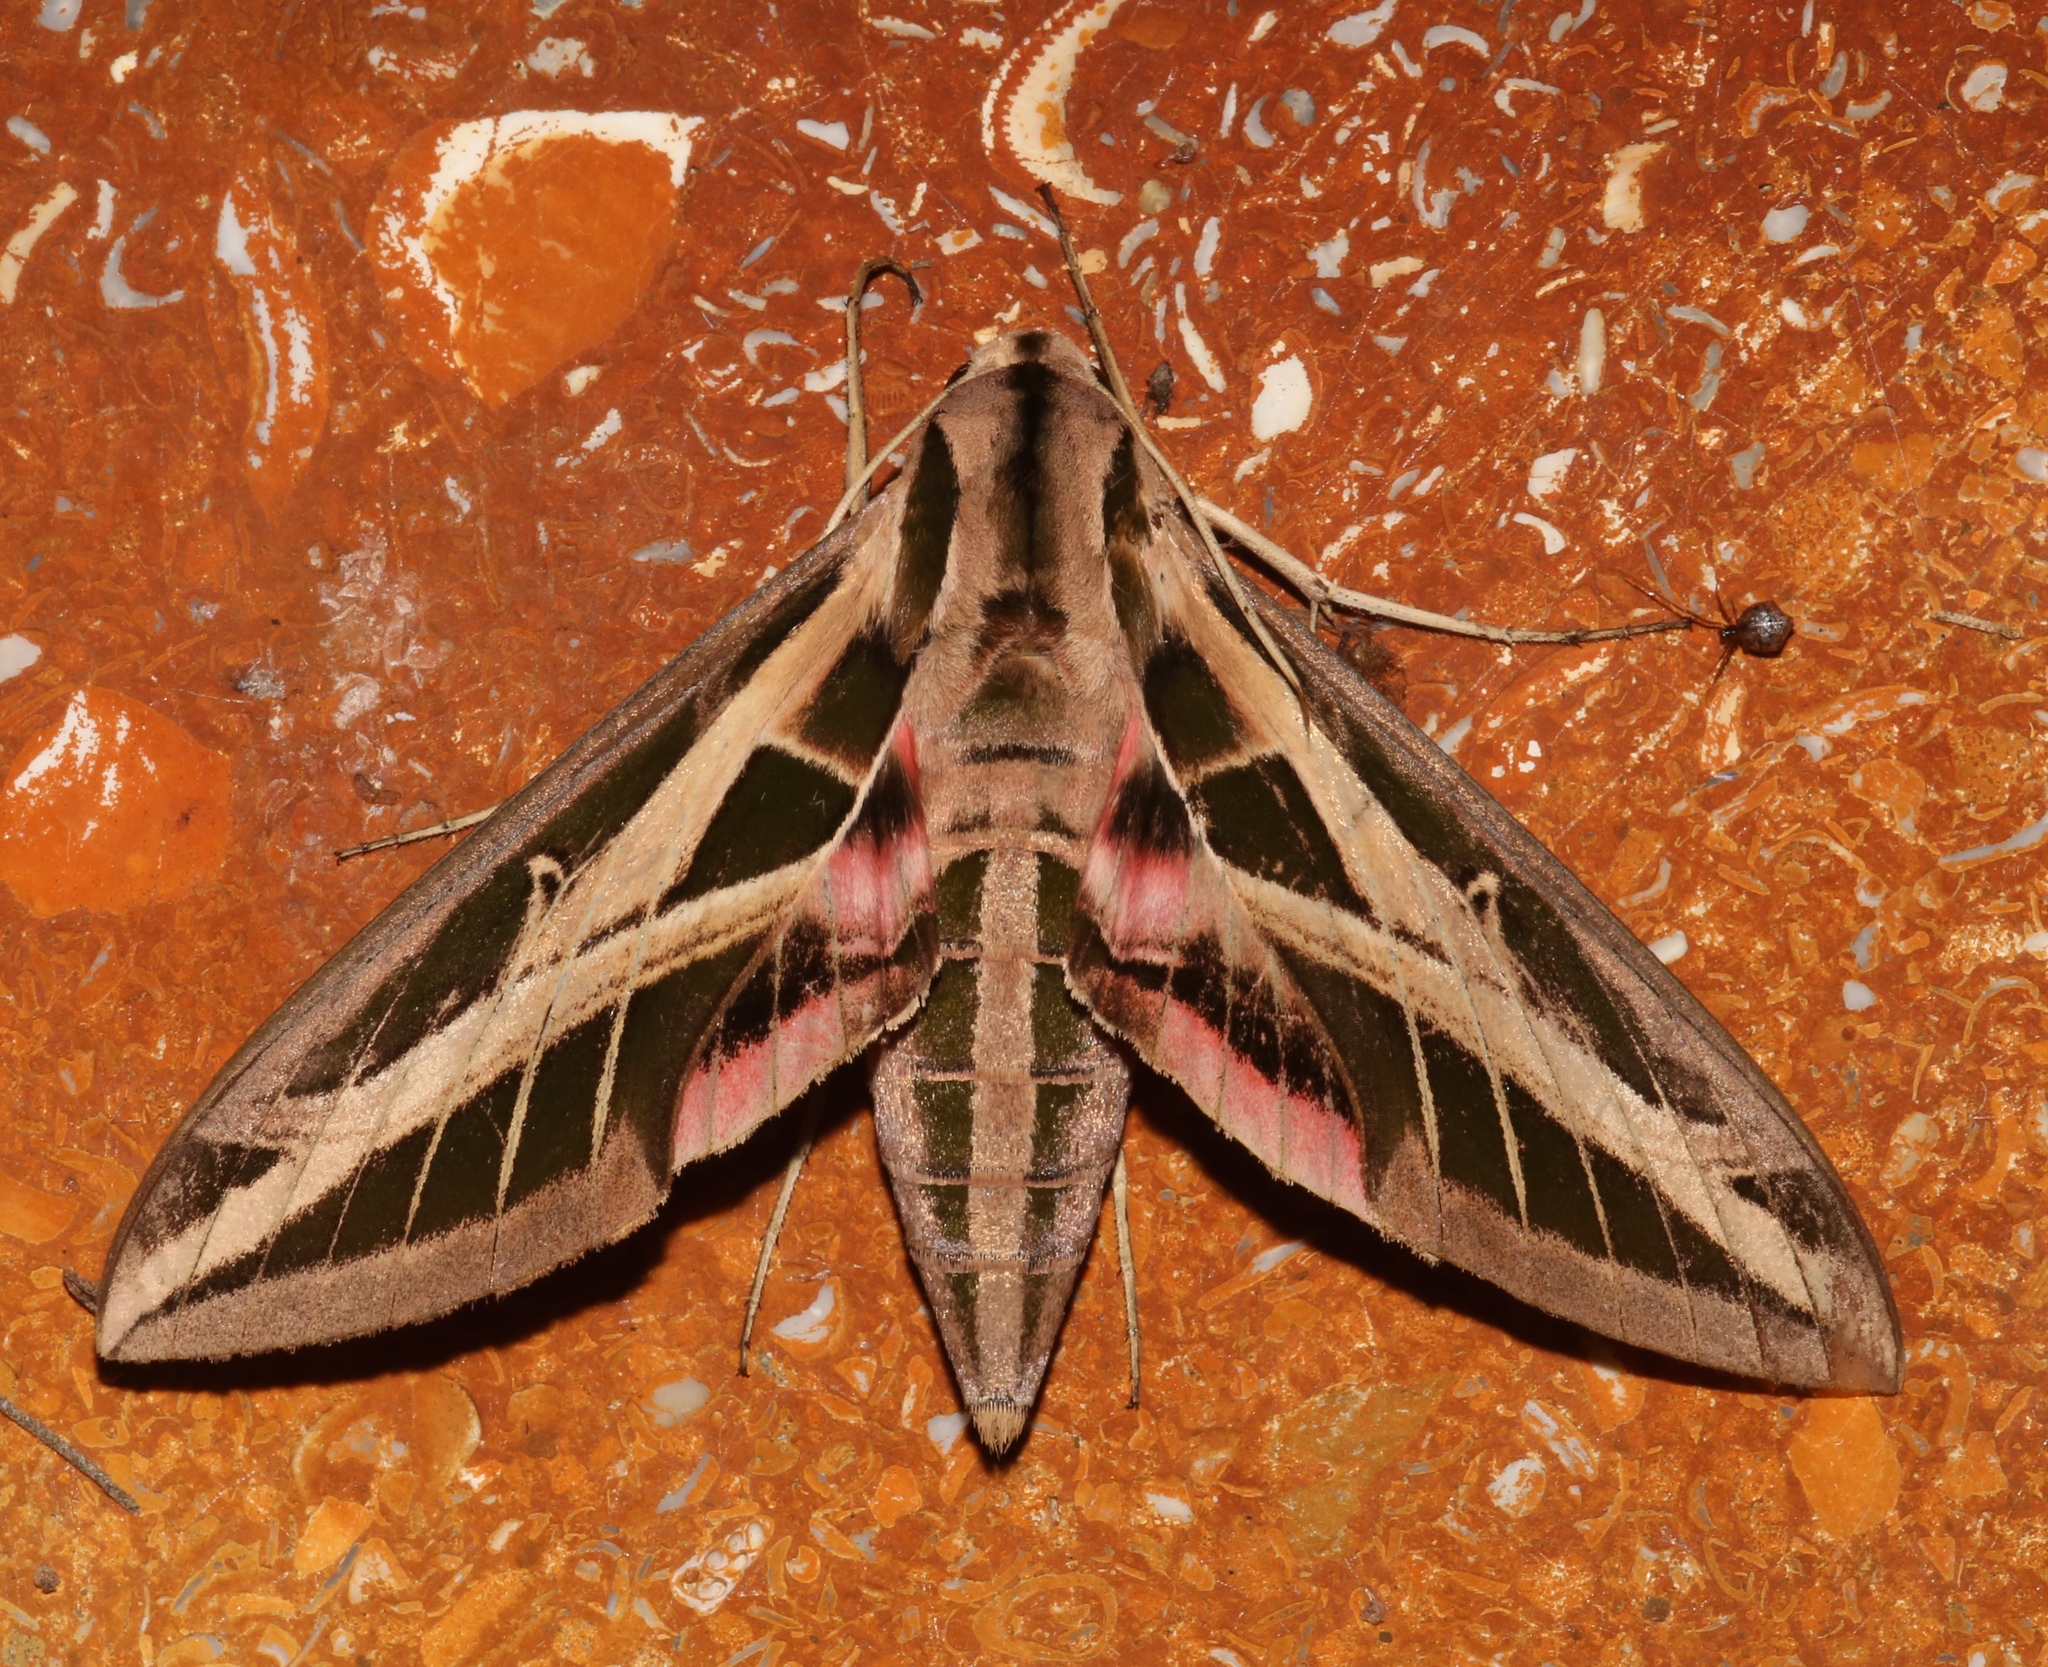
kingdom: Animalia
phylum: Arthropoda
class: Insecta
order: Lepidoptera
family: Sphingidae
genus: Eumorpha
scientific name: Eumorpha fasciatus
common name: Banded sphinx
